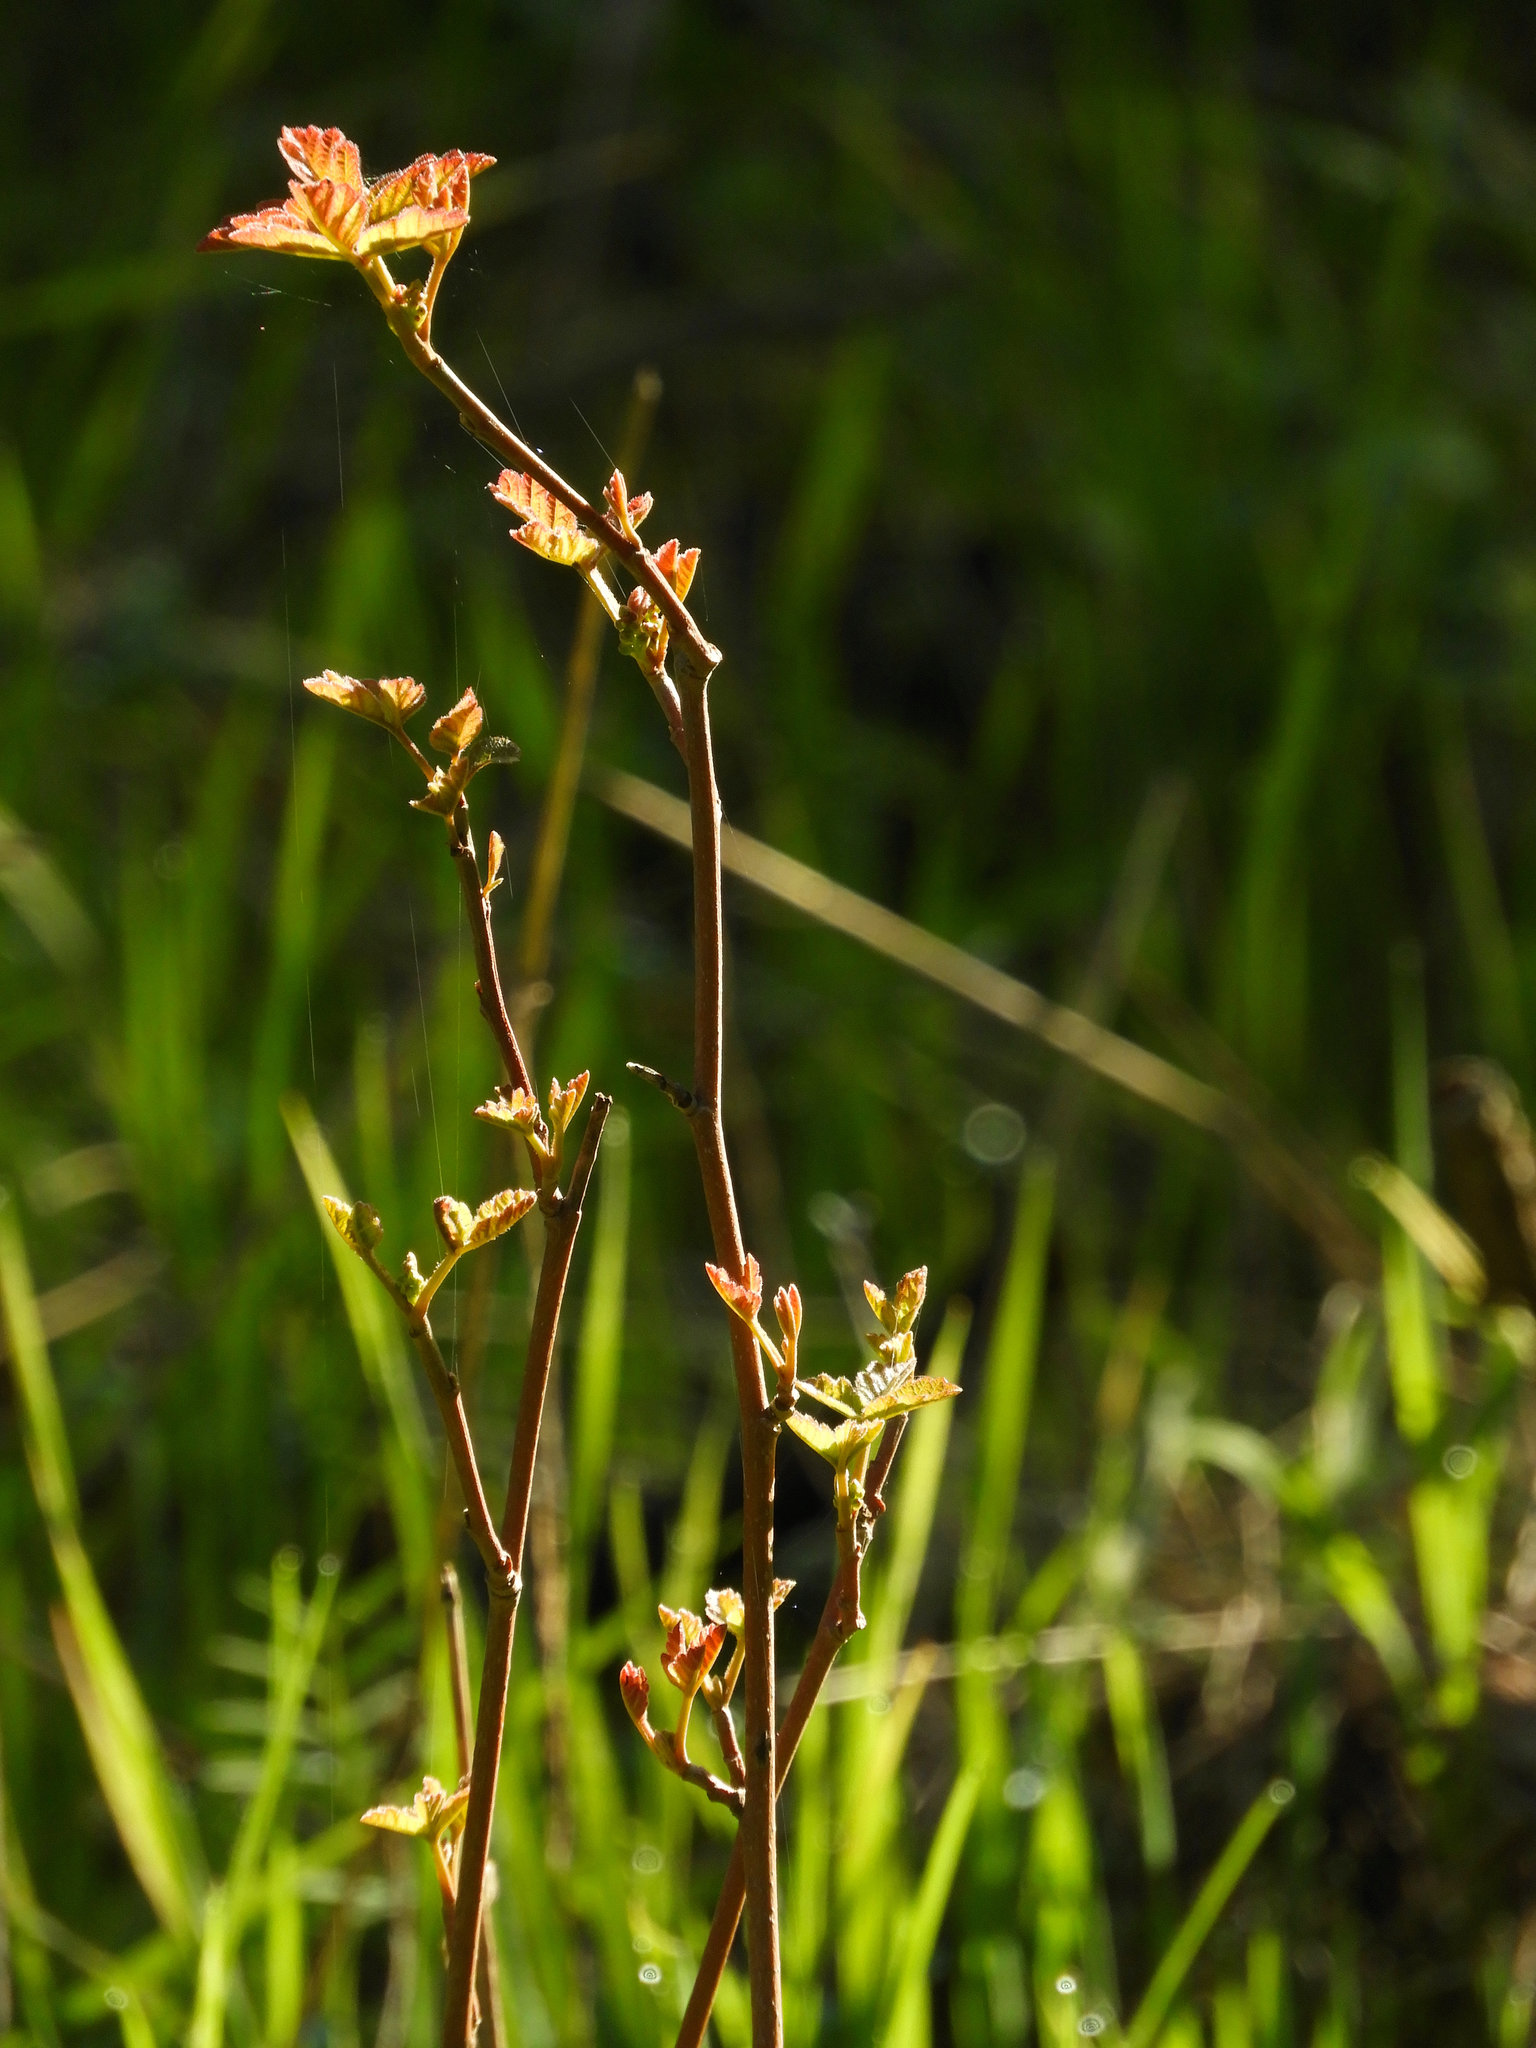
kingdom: Plantae
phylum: Tracheophyta
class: Magnoliopsida
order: Sapindales
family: Anacardiaceae
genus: Toxicodendron
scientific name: Toxicodendron diversilobum
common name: Pacific poison-oak
